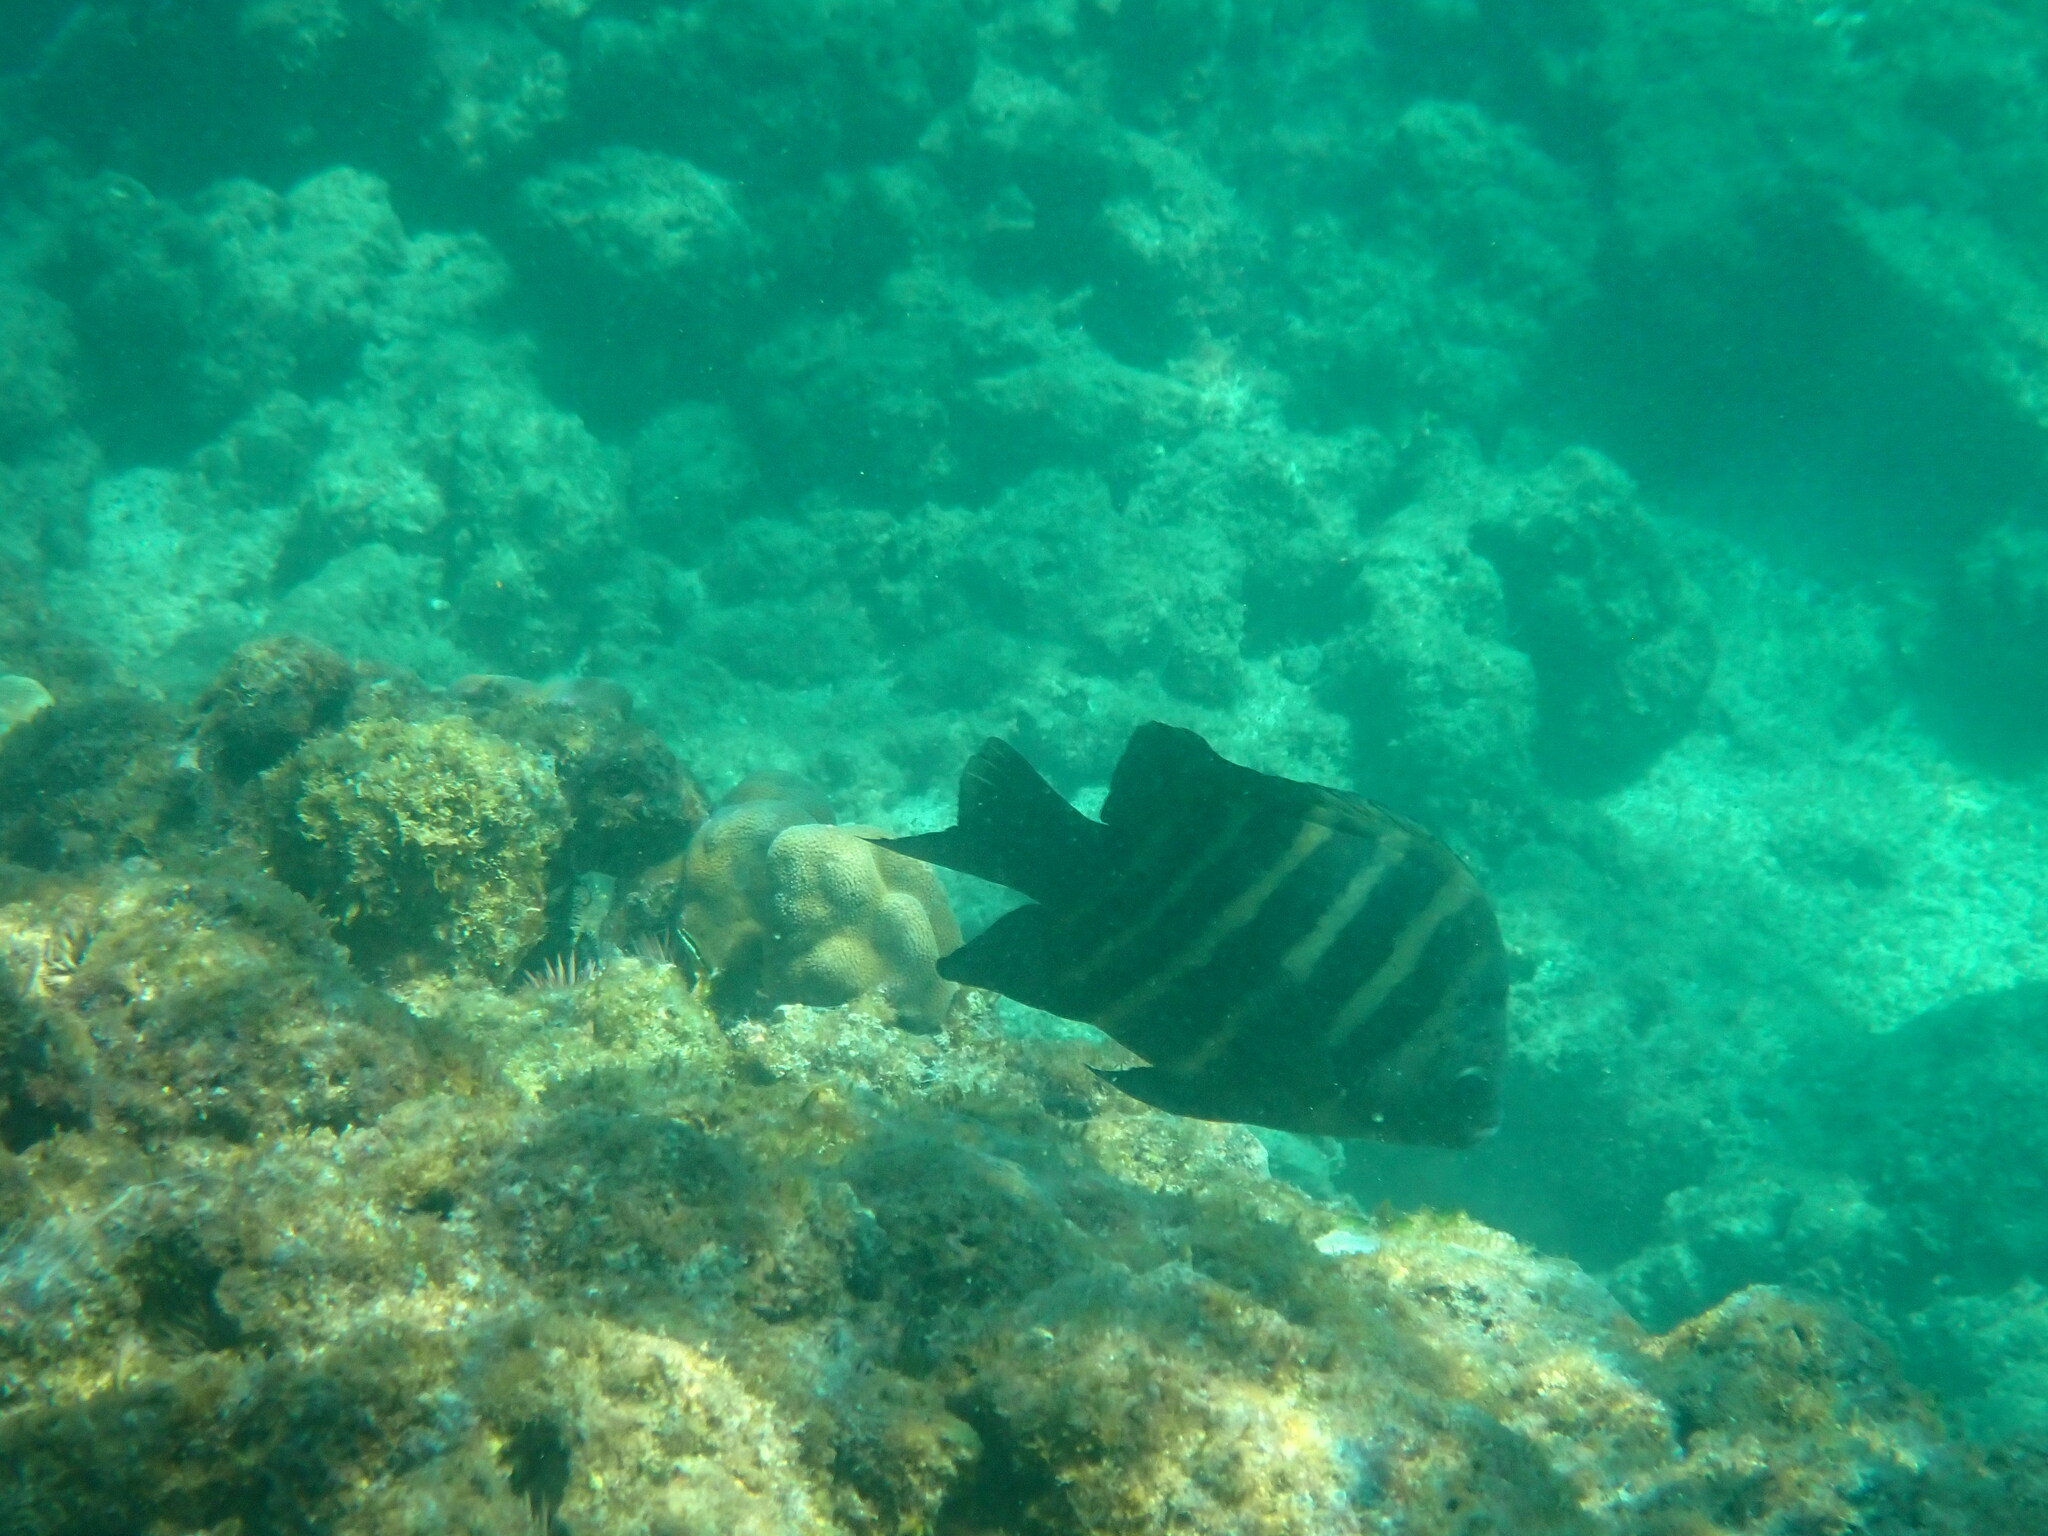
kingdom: Animalia
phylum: Chordata
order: Perciformes
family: Pomacentridae
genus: Abudefduf
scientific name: Abudefduf sordidus
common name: Blackspot sergeant
